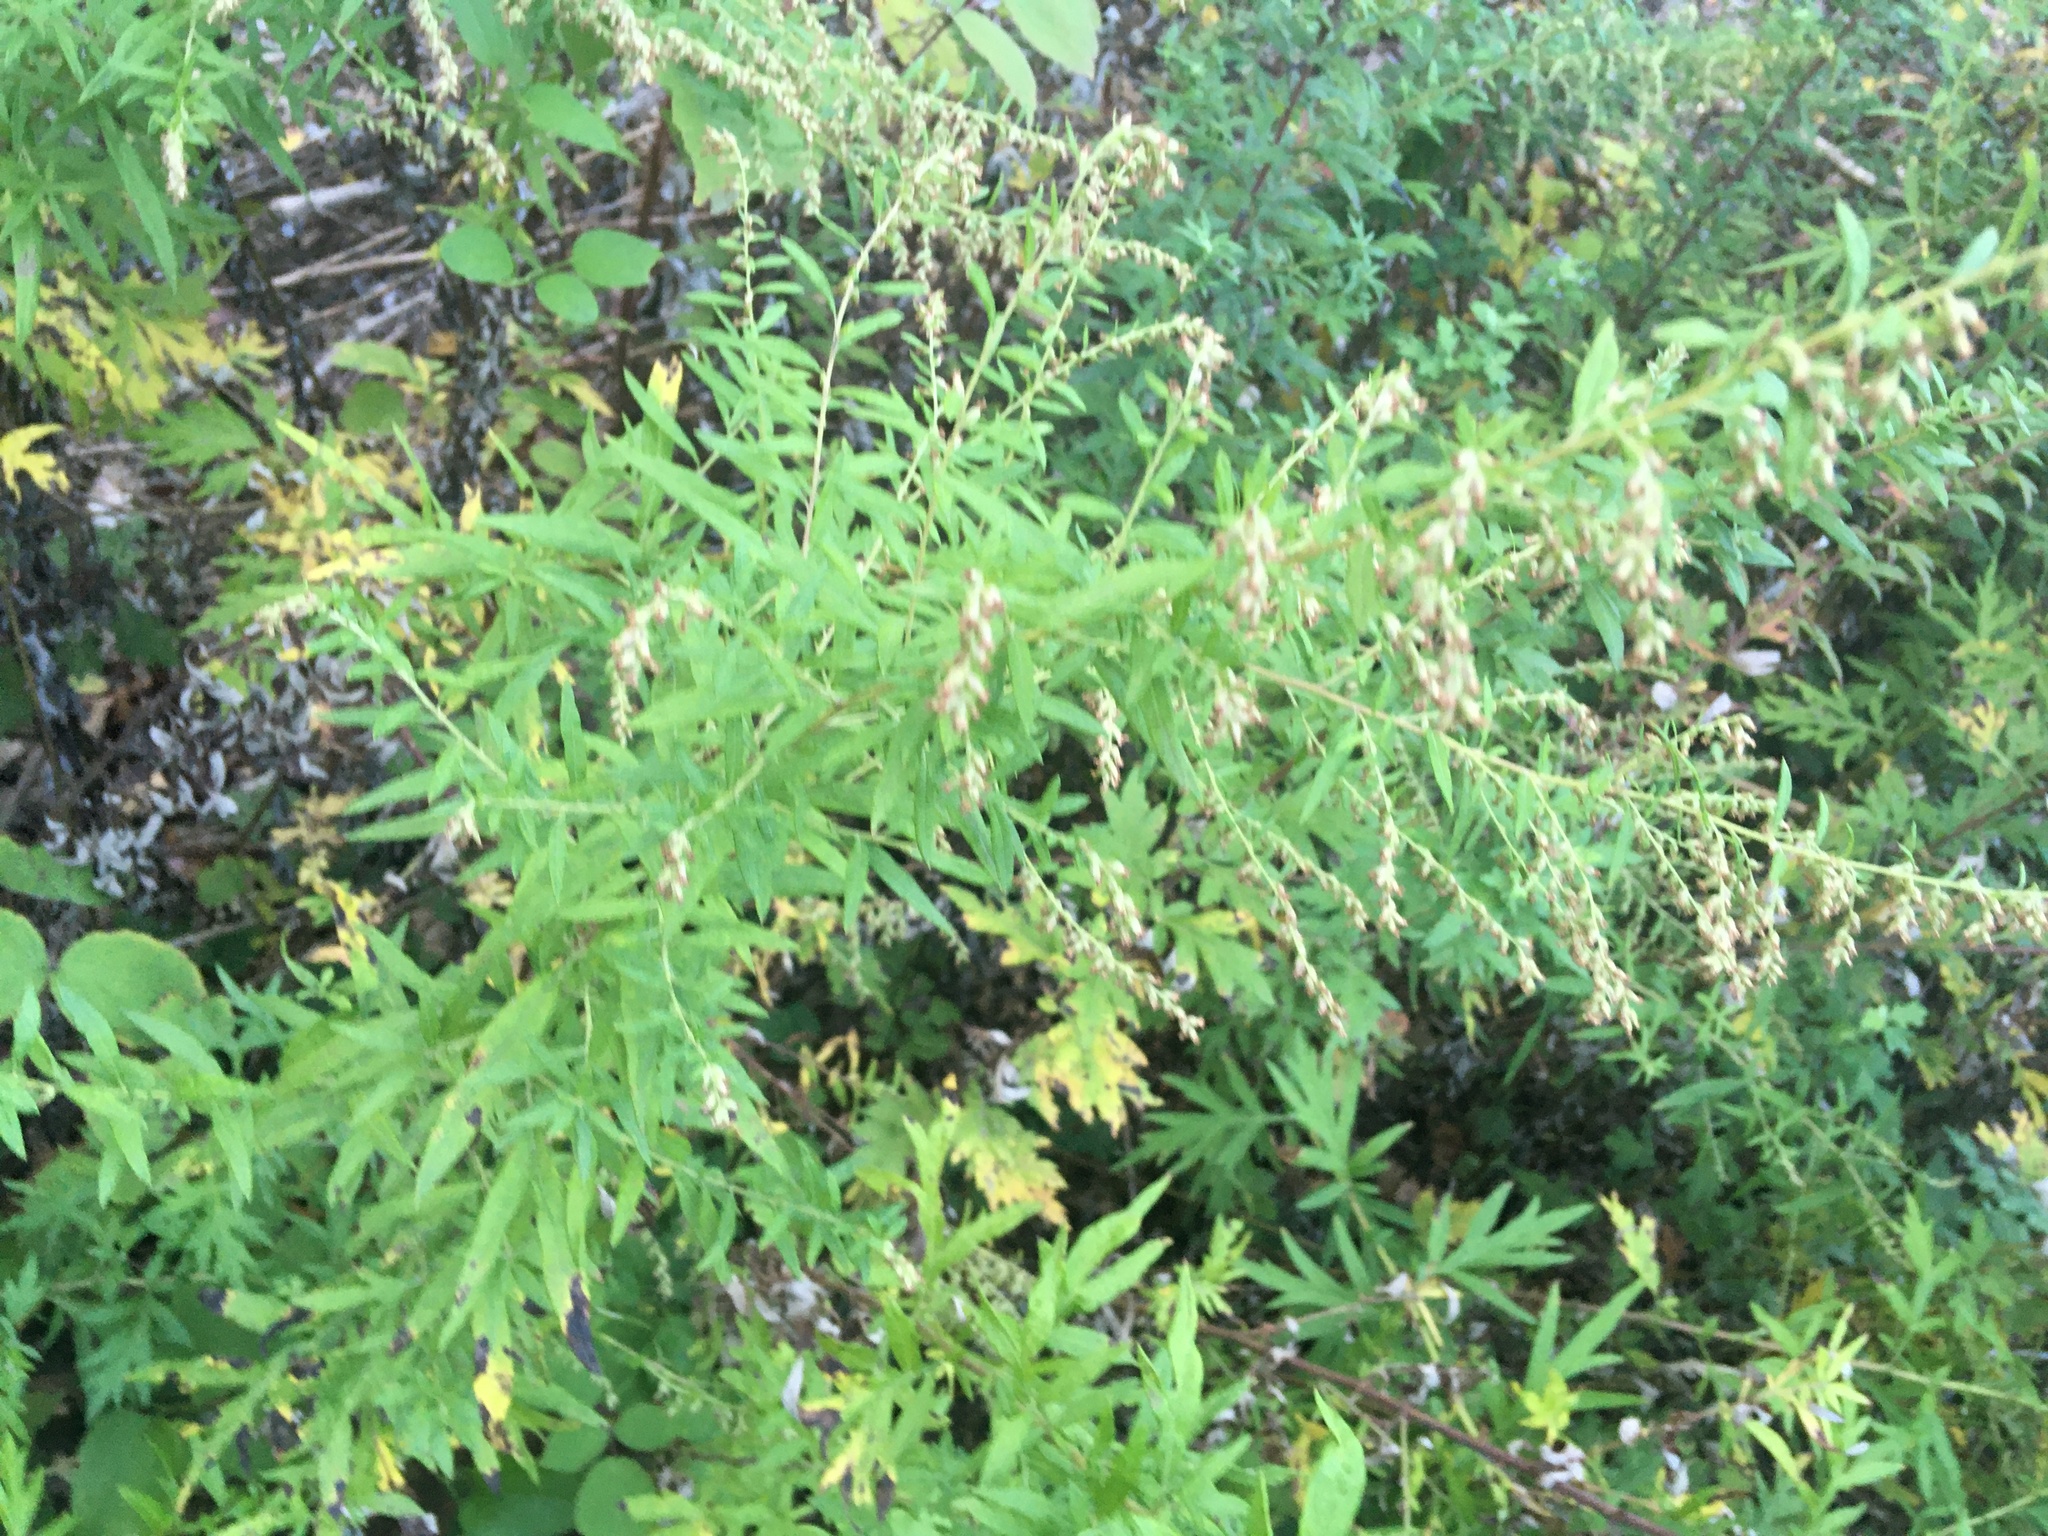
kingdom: Plantae
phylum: Tracheophyta
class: Magnoliopsida
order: Asterales
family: Asteraceae
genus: Artemisia
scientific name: Artemisia vulgaris
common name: Mugwort
